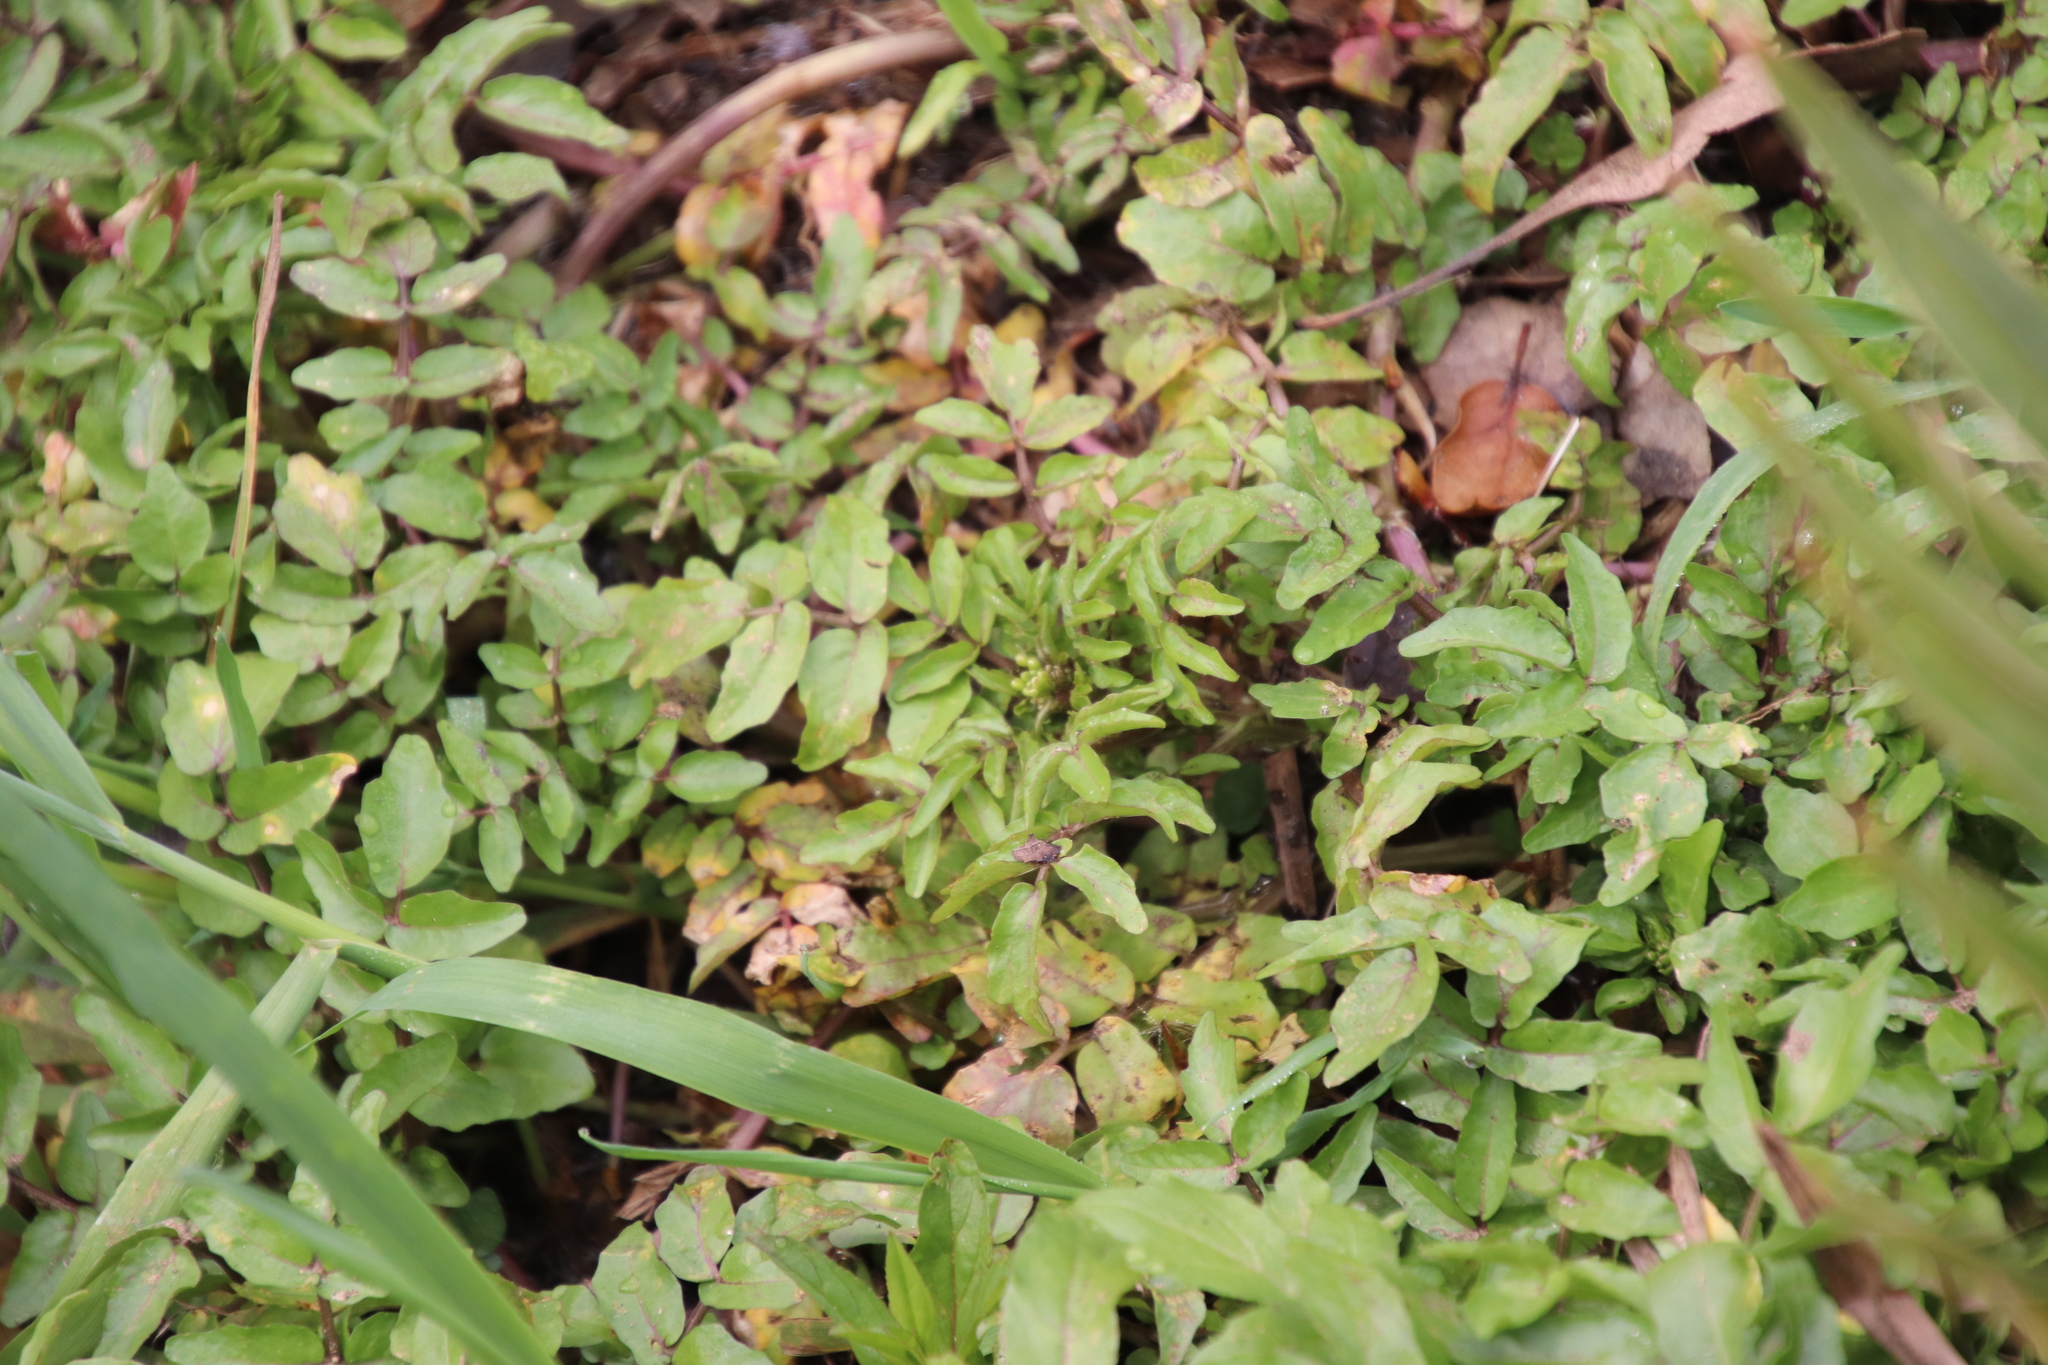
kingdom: Plantae
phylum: Tracheophyta
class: Magnoliopsida
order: Brassicales
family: Brassicaceae
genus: Nasturtium
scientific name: Nasturtium officinale
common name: Watercress
